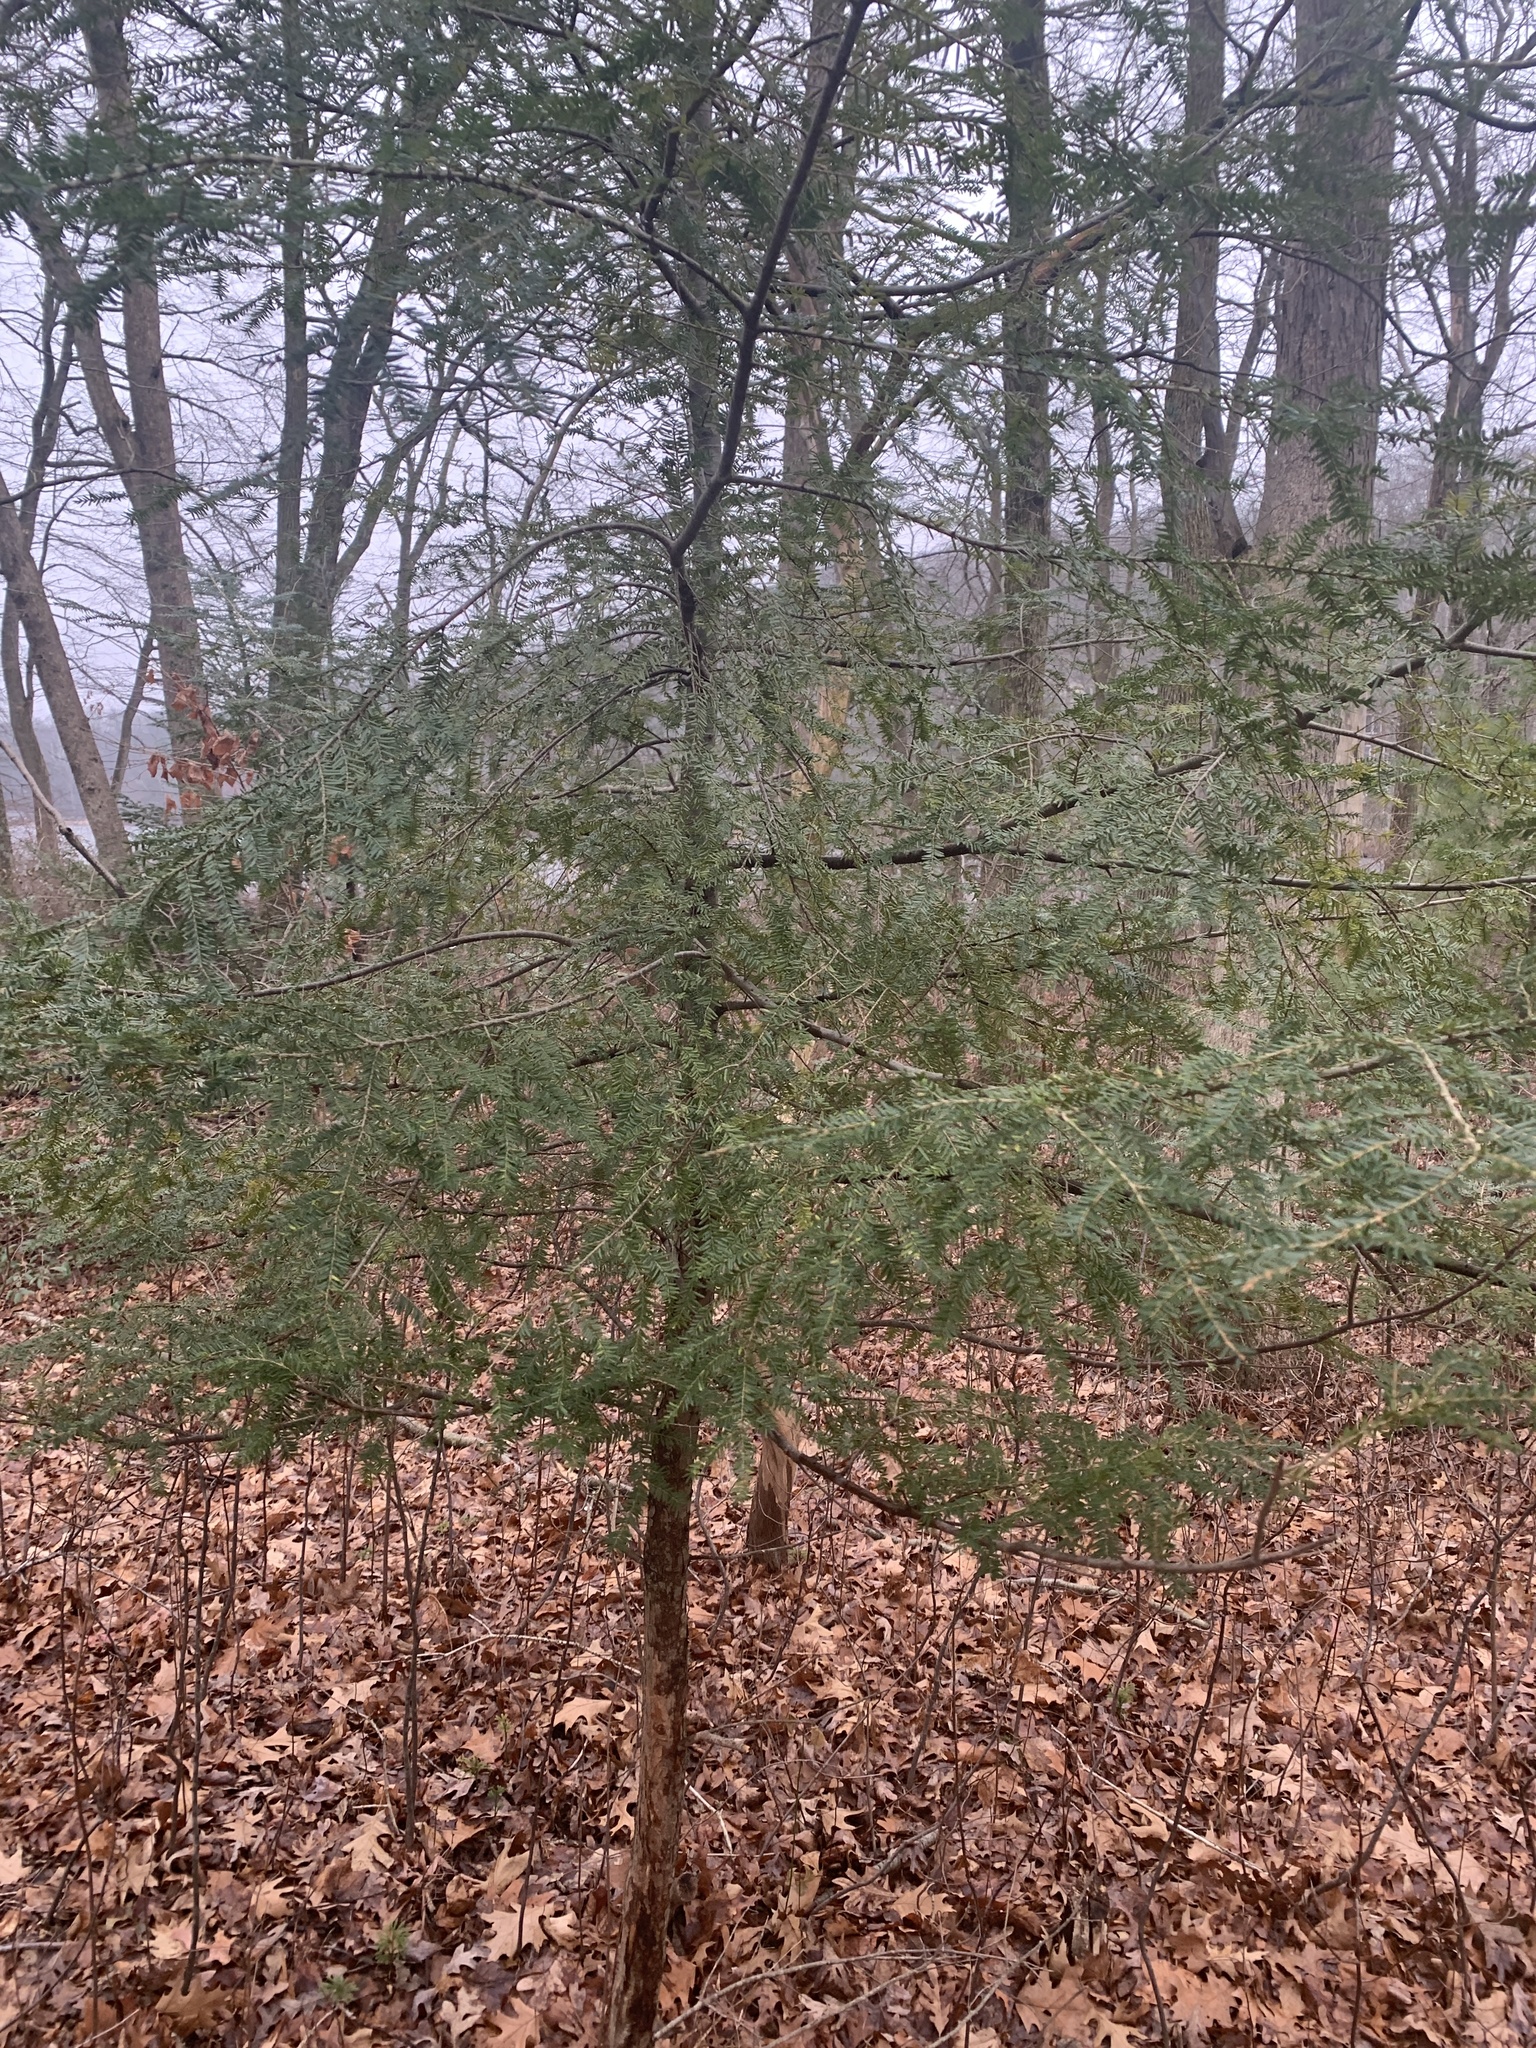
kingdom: Plantae
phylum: Tracheophyta
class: Pinopsida
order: Pinales
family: Pinaceae
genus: Tsuga
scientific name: Tsuga canadensis
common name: Eastern hemlock
